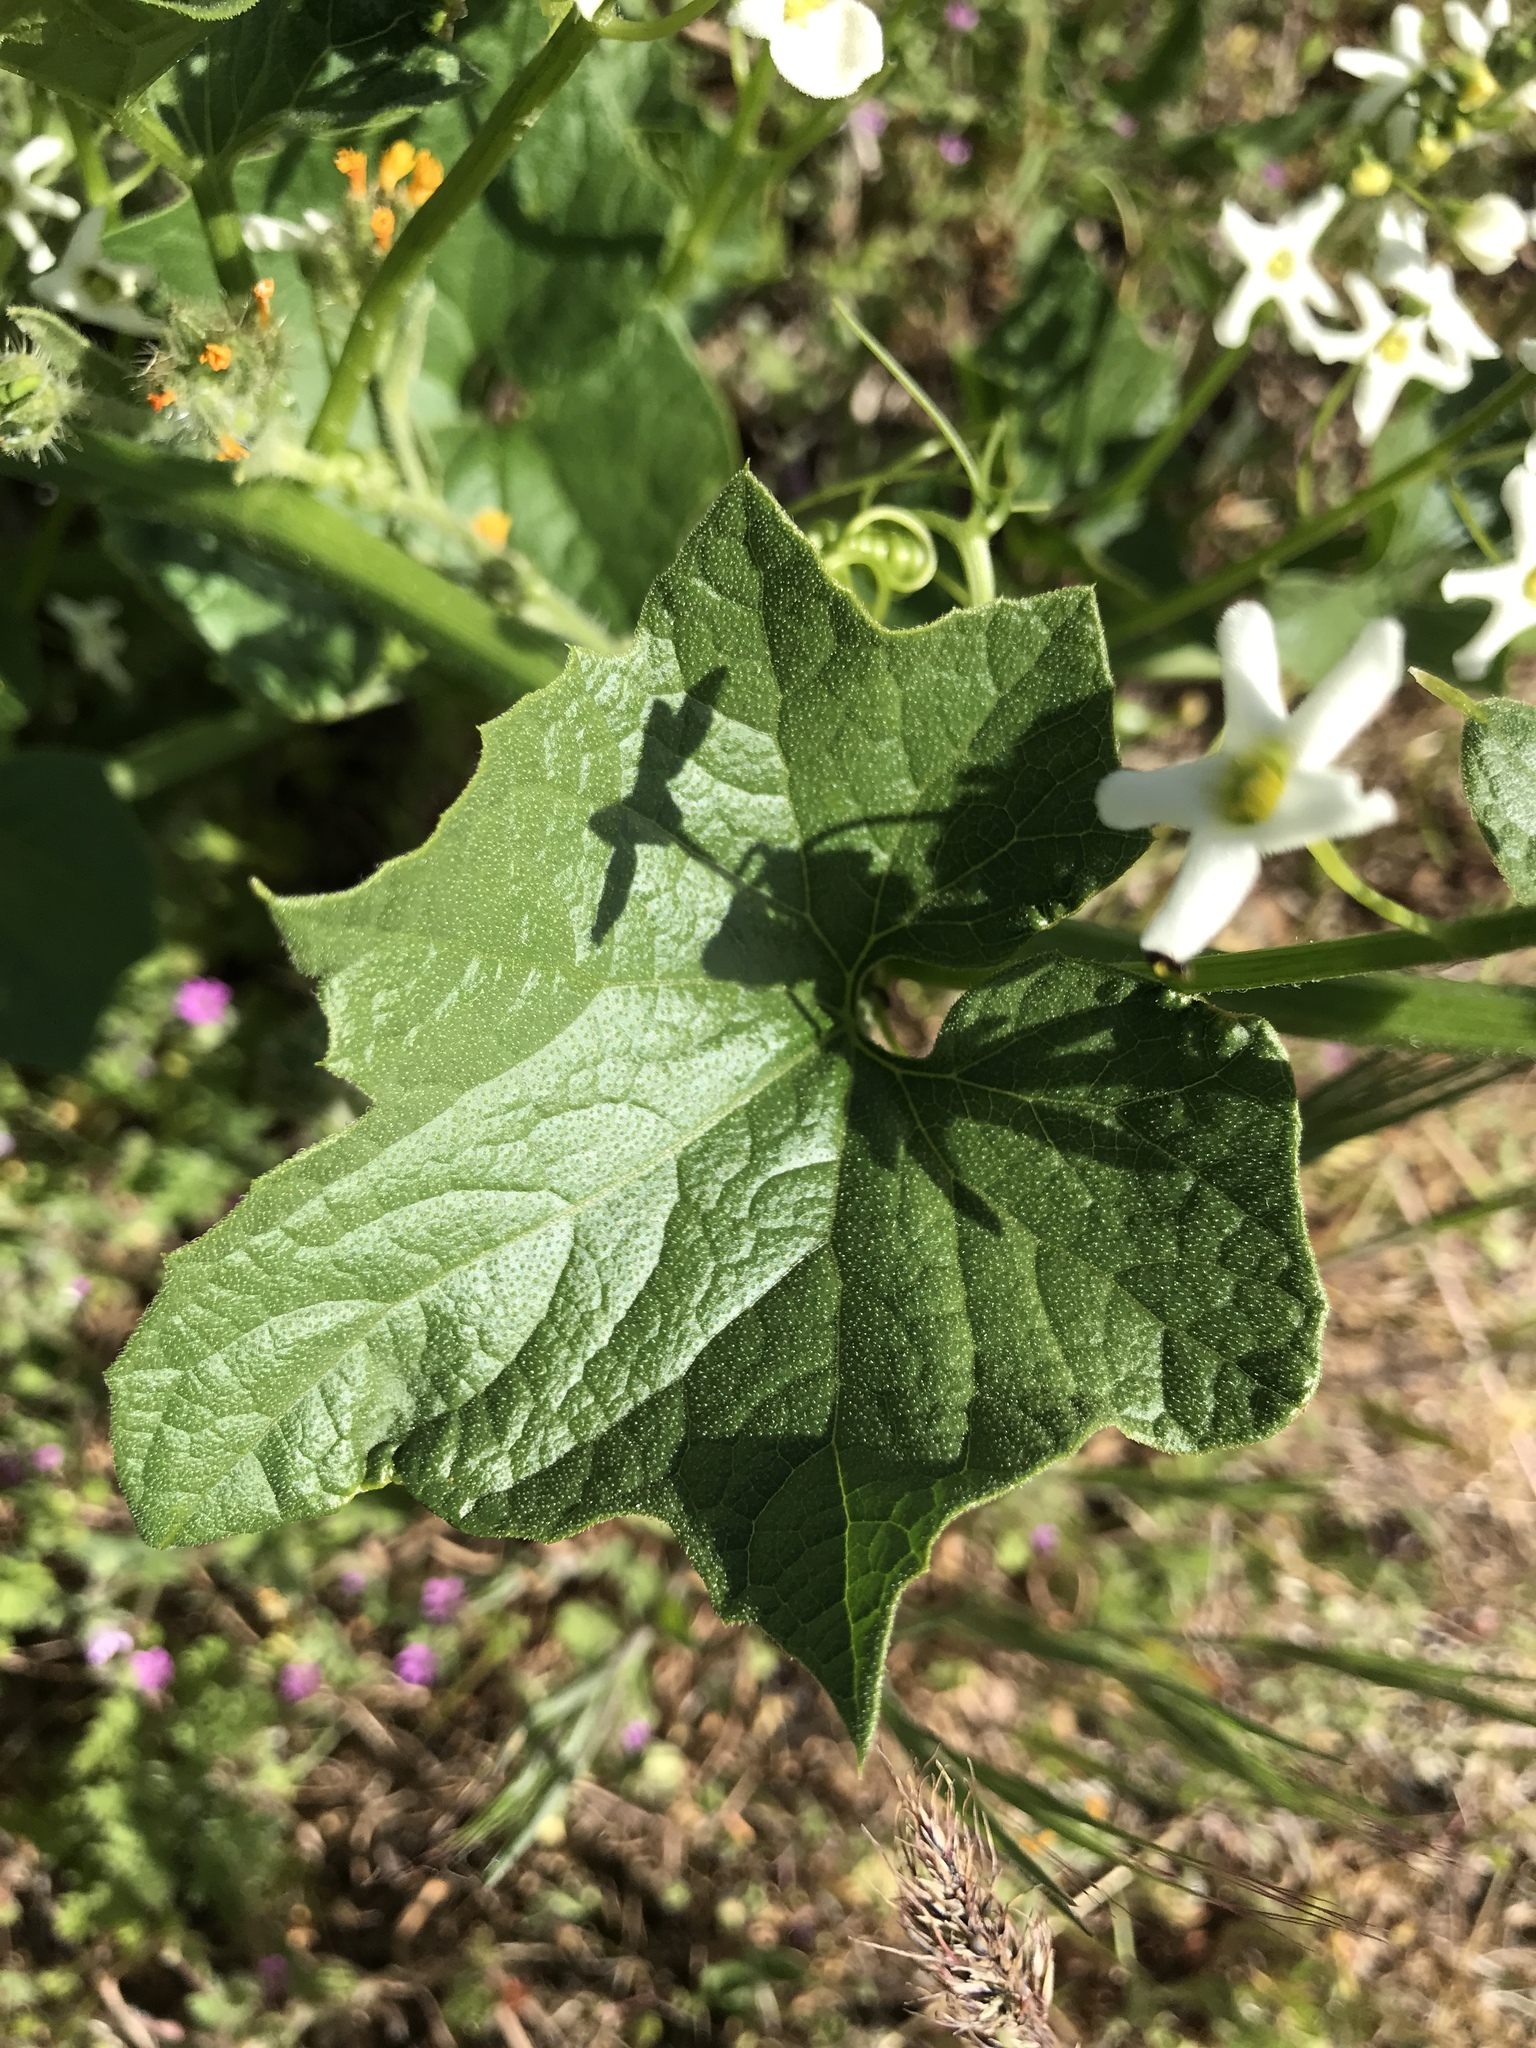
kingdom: Plantae
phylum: Tracheophyta
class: Magnoliopsida
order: Cucurbitales
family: Cucurbitaceae
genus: Marah
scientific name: Marah oregana
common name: Coastal manroot
